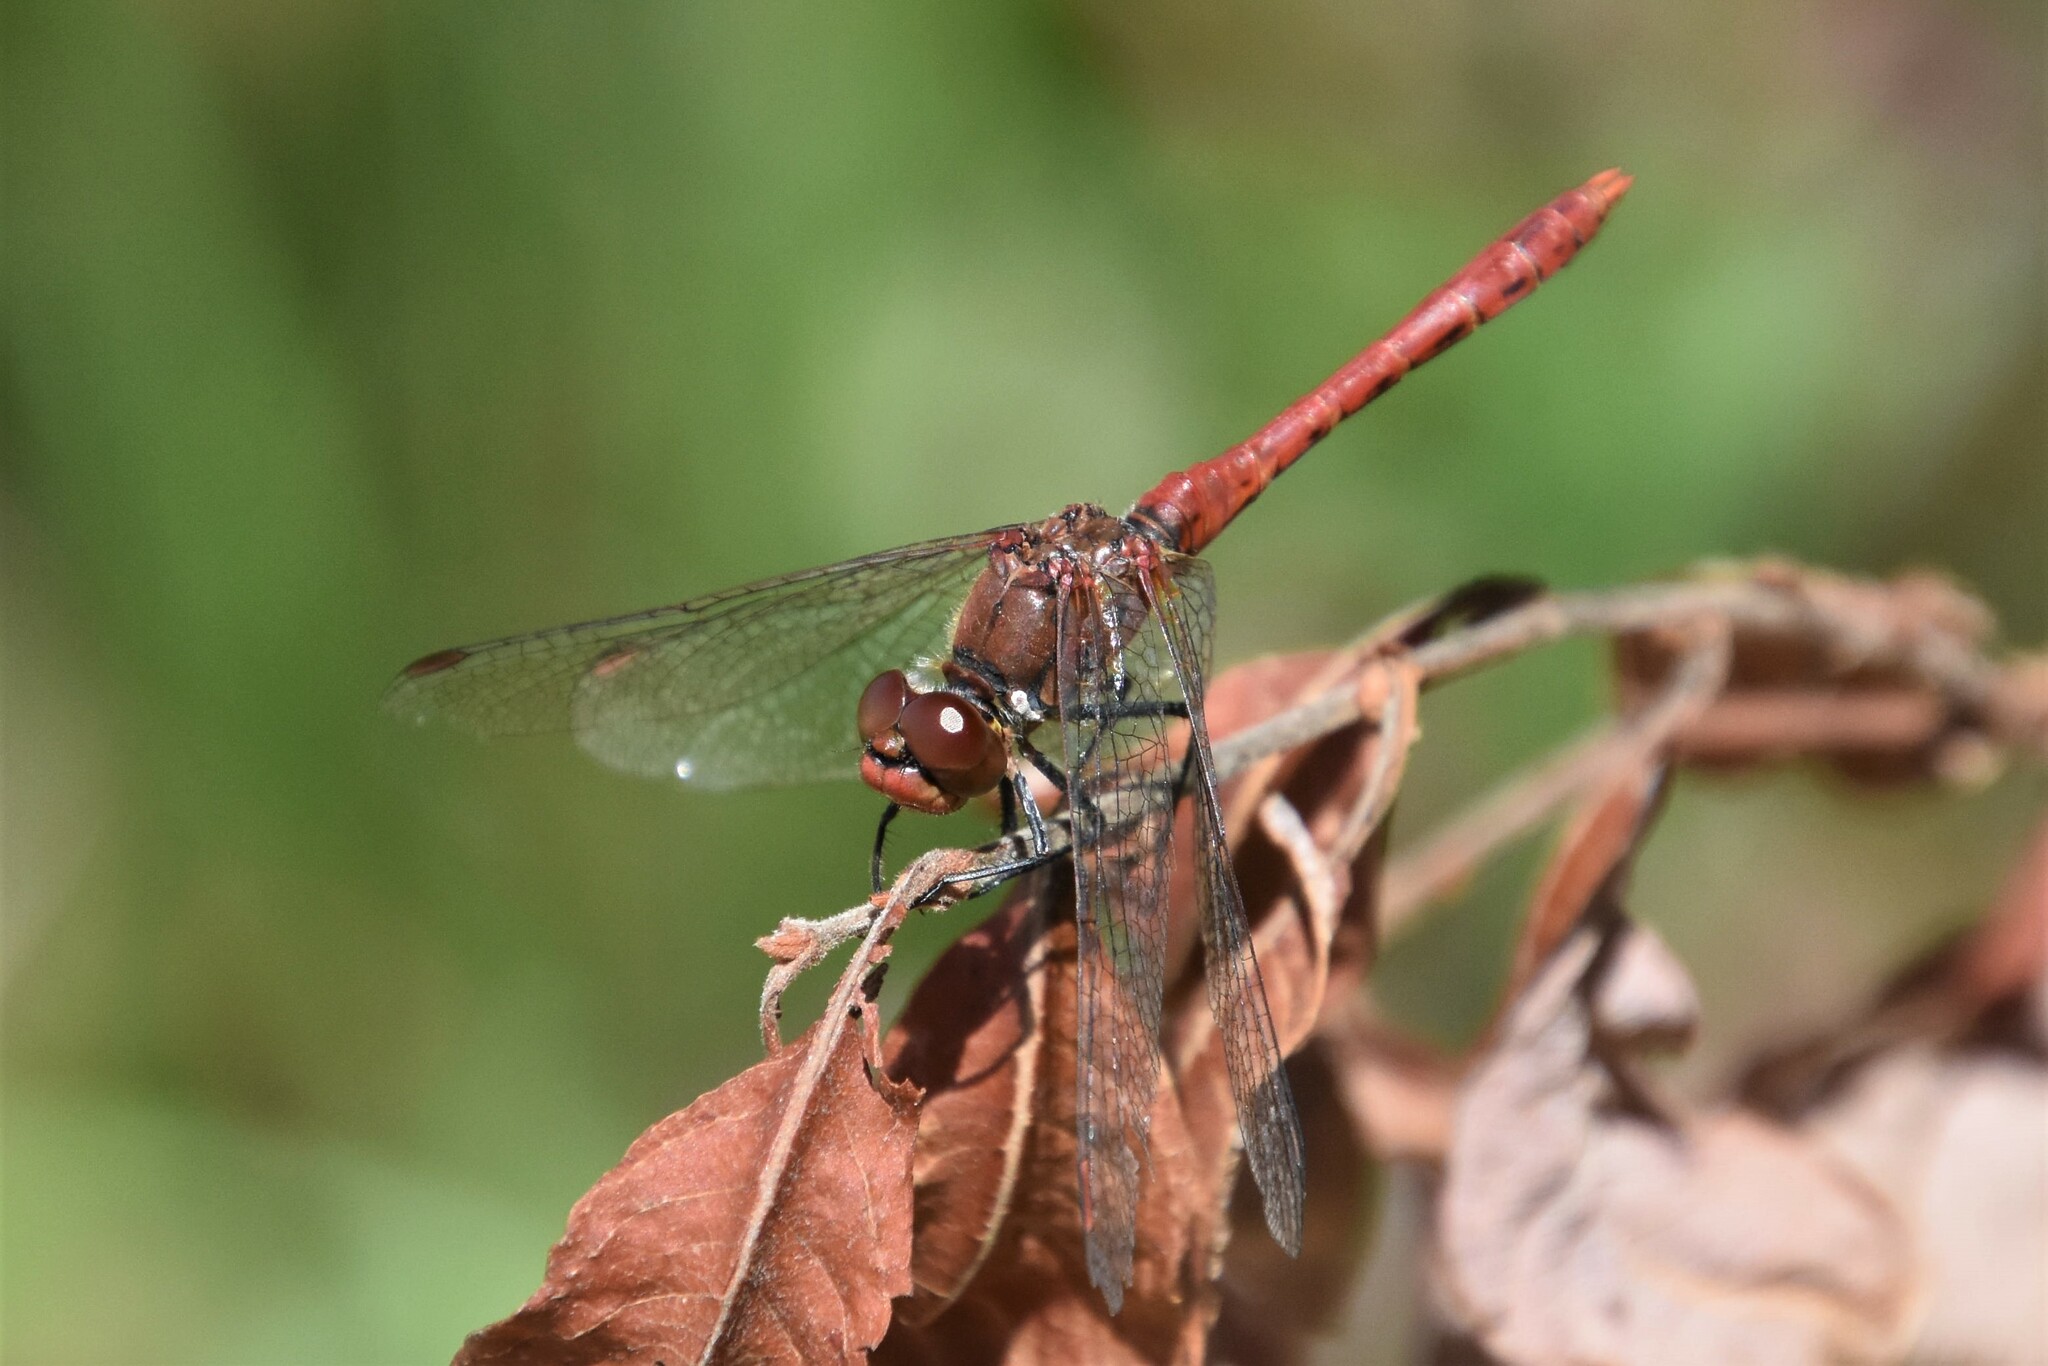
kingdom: Animalia
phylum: Arthropoda
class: Insecta
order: Odonata
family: Libellulidae
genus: Sympetrum
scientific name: Sympetrum sanguineum
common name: Ruddy darter
